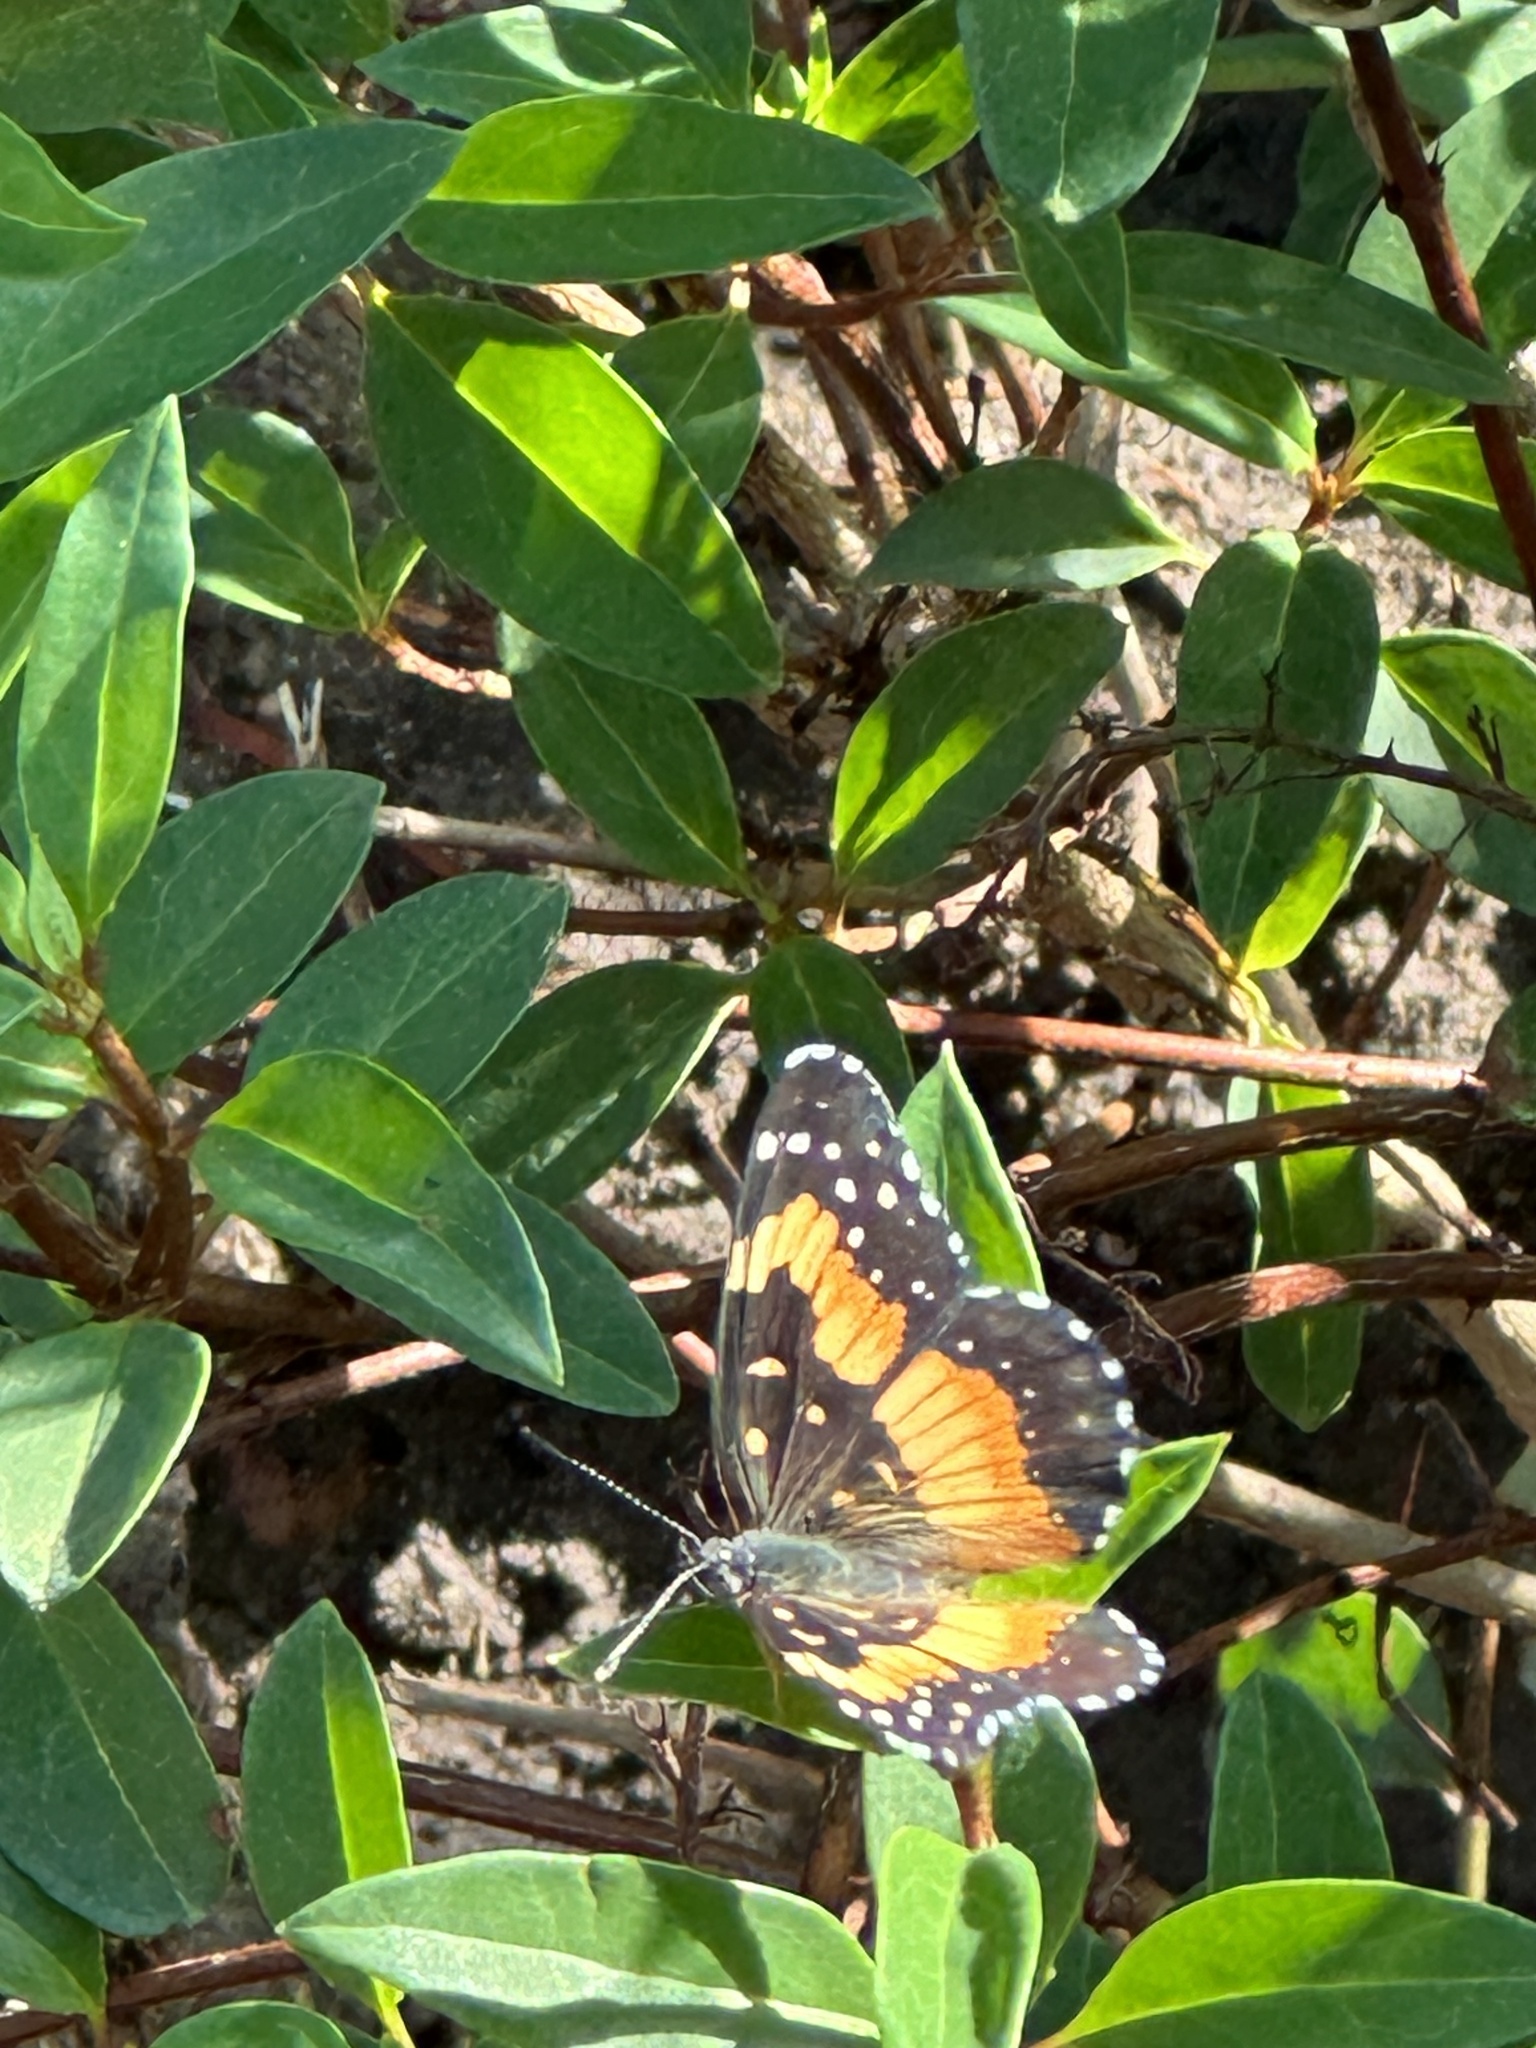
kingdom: Animalia
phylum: Arthropoda
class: Insecta
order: Lepidoptera
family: Nymphalidae
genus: Chlosyne
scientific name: Chlosyne lacinia
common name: Bordered patch
